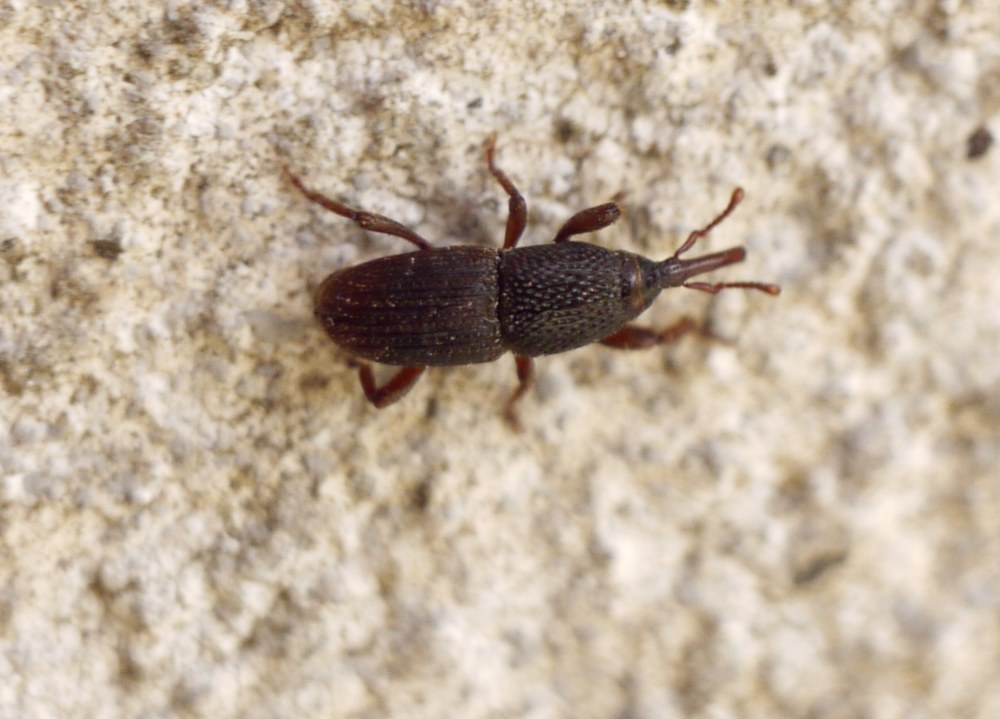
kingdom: Animalia
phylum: Arthropoda
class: Insecta
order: Coleoptera
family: Dryophthoridae
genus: Sitophilus
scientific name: Sitophilus granarius
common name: Granary weevil
